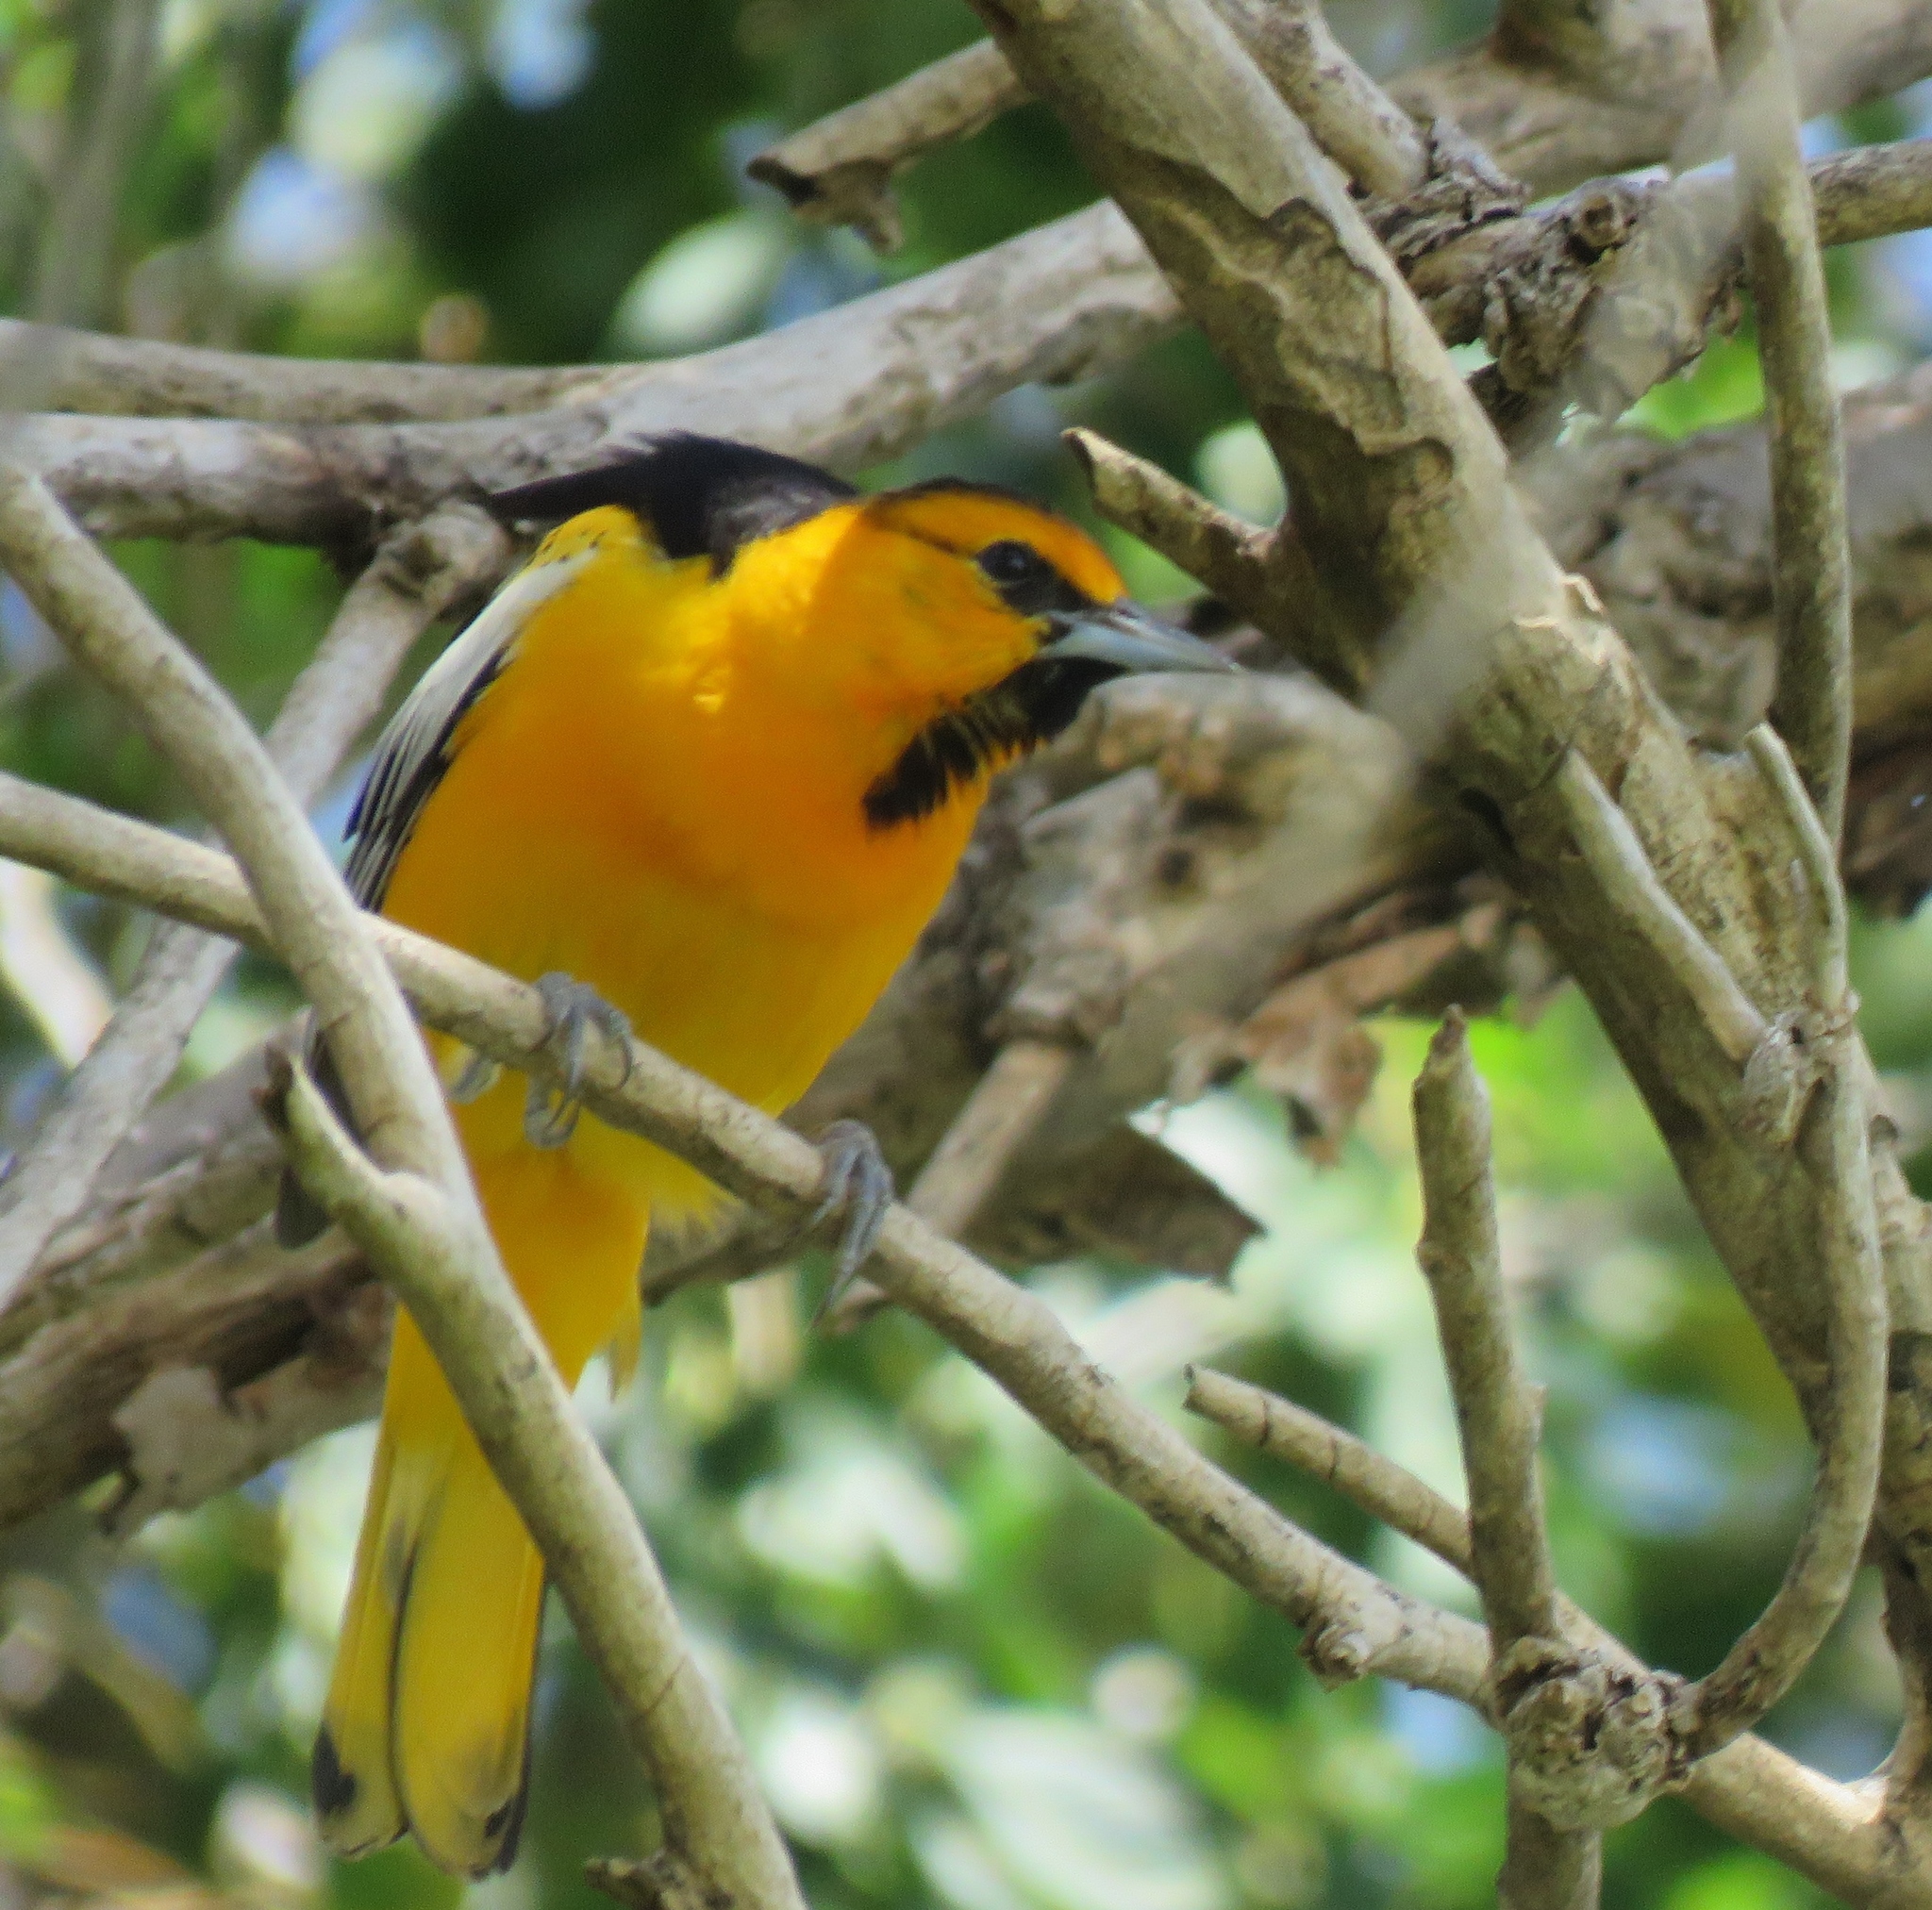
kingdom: Animalia
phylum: Chordata
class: Aves
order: Passeriformes
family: Icteridae
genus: Icterus
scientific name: Icterus bullockii
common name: Bullock's oriole
